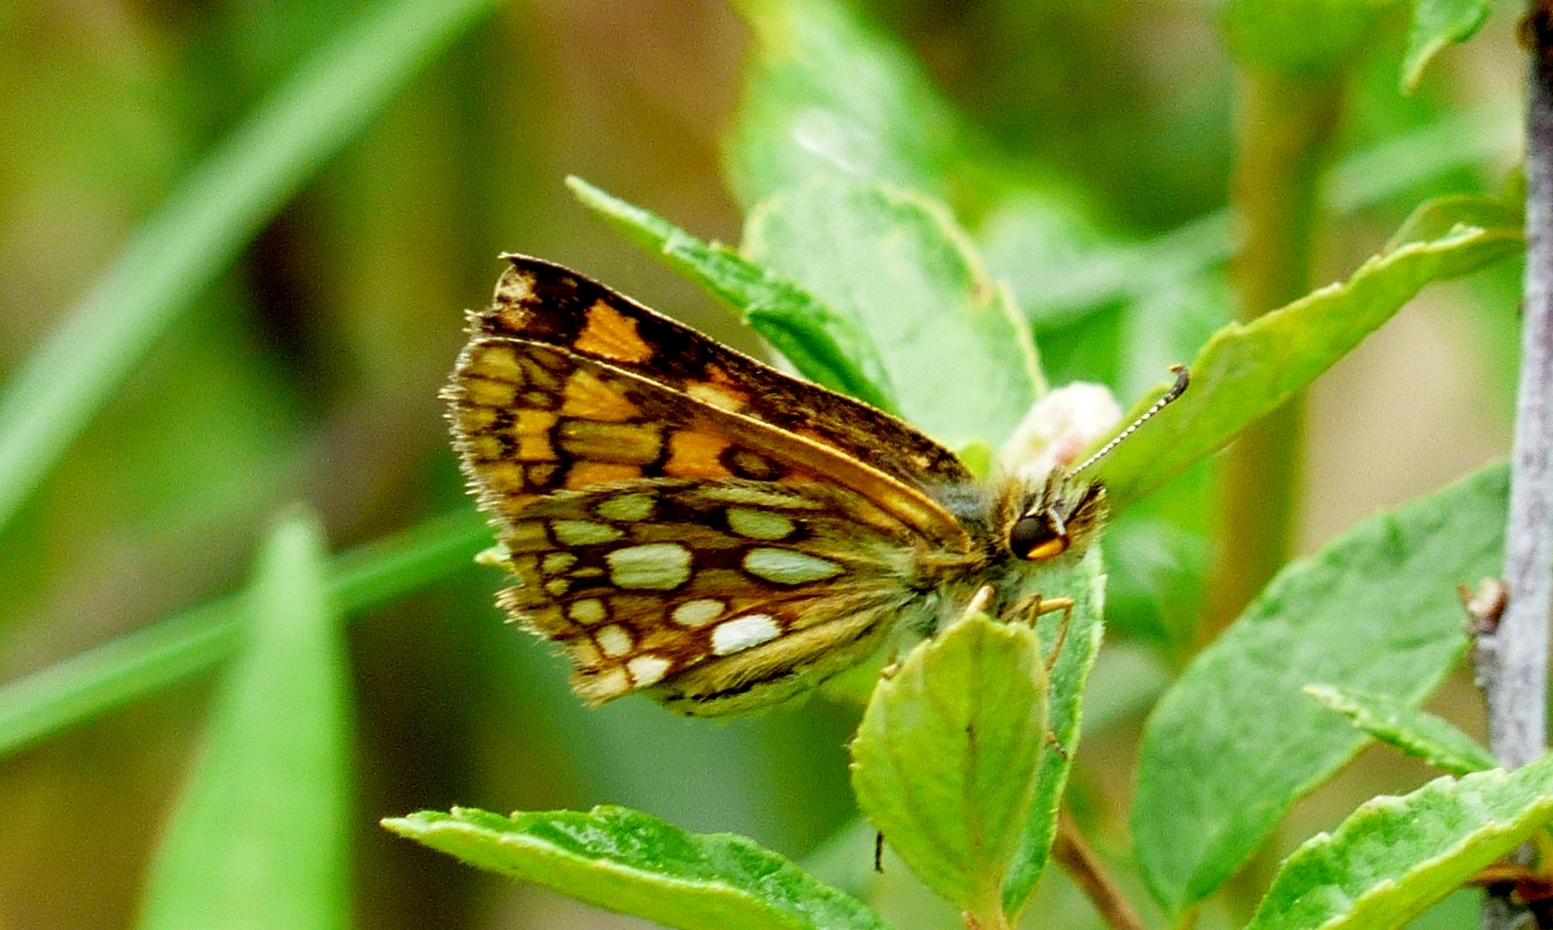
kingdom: Animalia
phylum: Arthropoda
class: Insecta
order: Lepidoptera
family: Hesperiidae
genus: Carterocephalus
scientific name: Carterocephalus mandan
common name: Arctic skipperling
